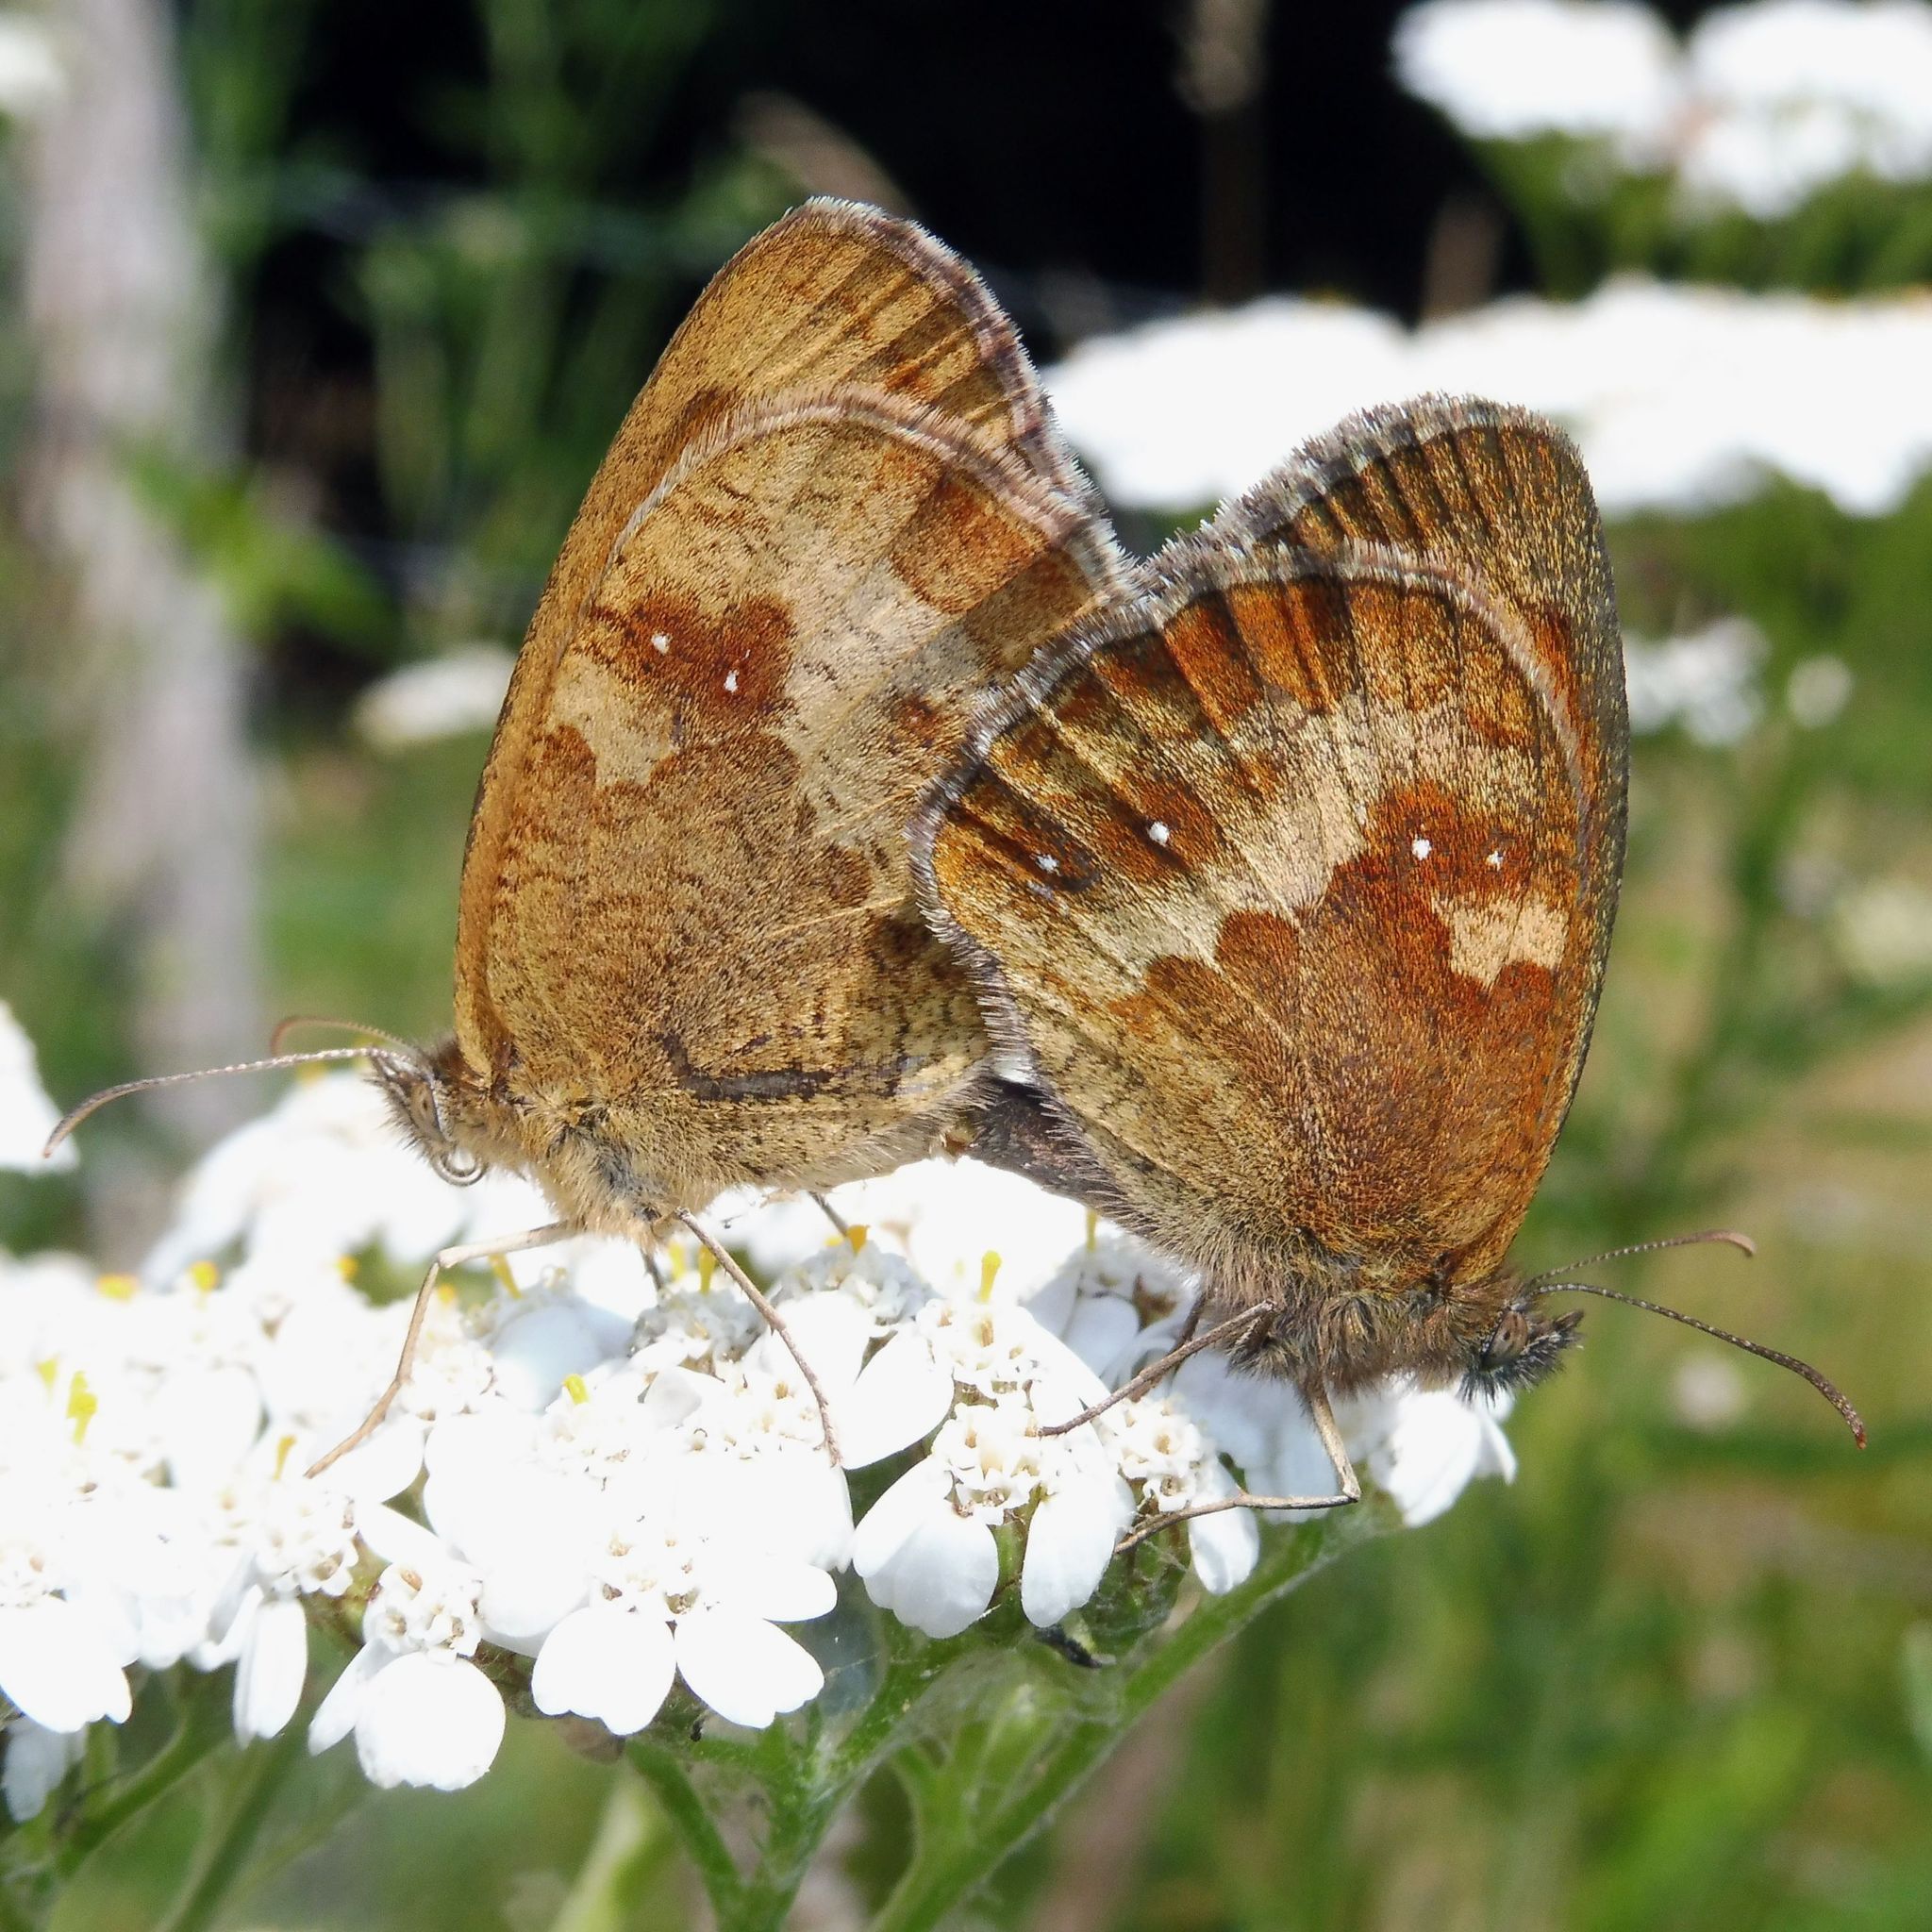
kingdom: Animalia
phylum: Arthropoda
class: Insecta
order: Lepidoptera
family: Nymphalidae
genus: Pyronia
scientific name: Pyronia tithonus
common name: Gatekeeper
